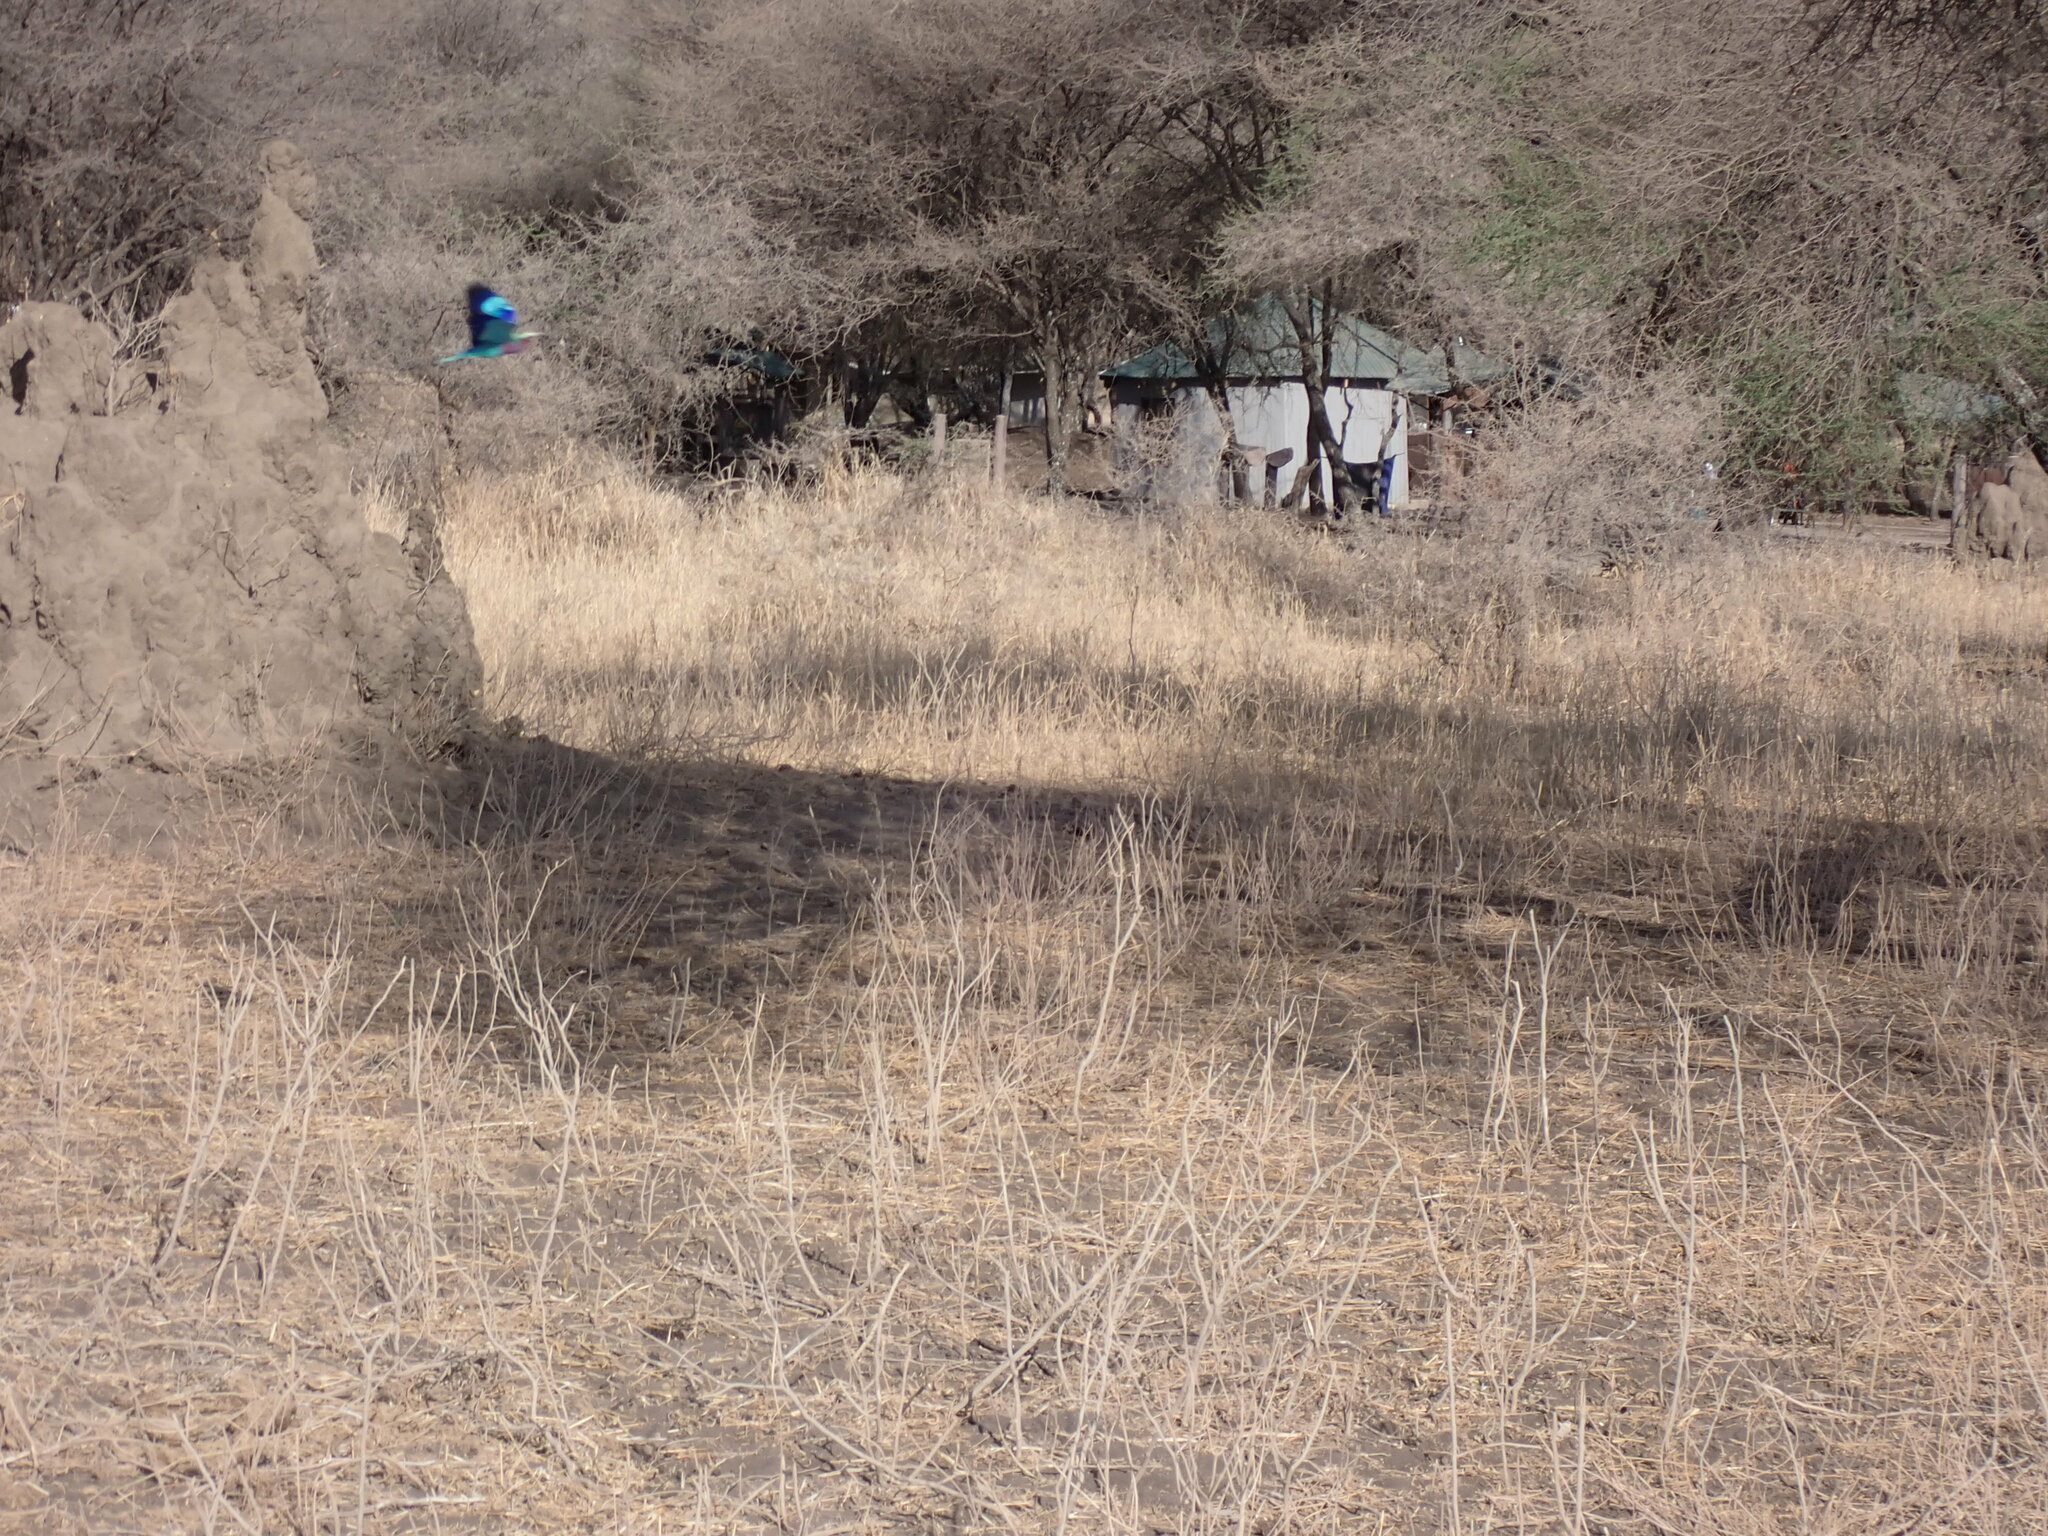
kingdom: Animalia
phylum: Chordata
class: Aves
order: Coraciiformes
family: Coraciidae
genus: Coracias
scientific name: Coracias caudatus
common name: Lilac-breasted roller
